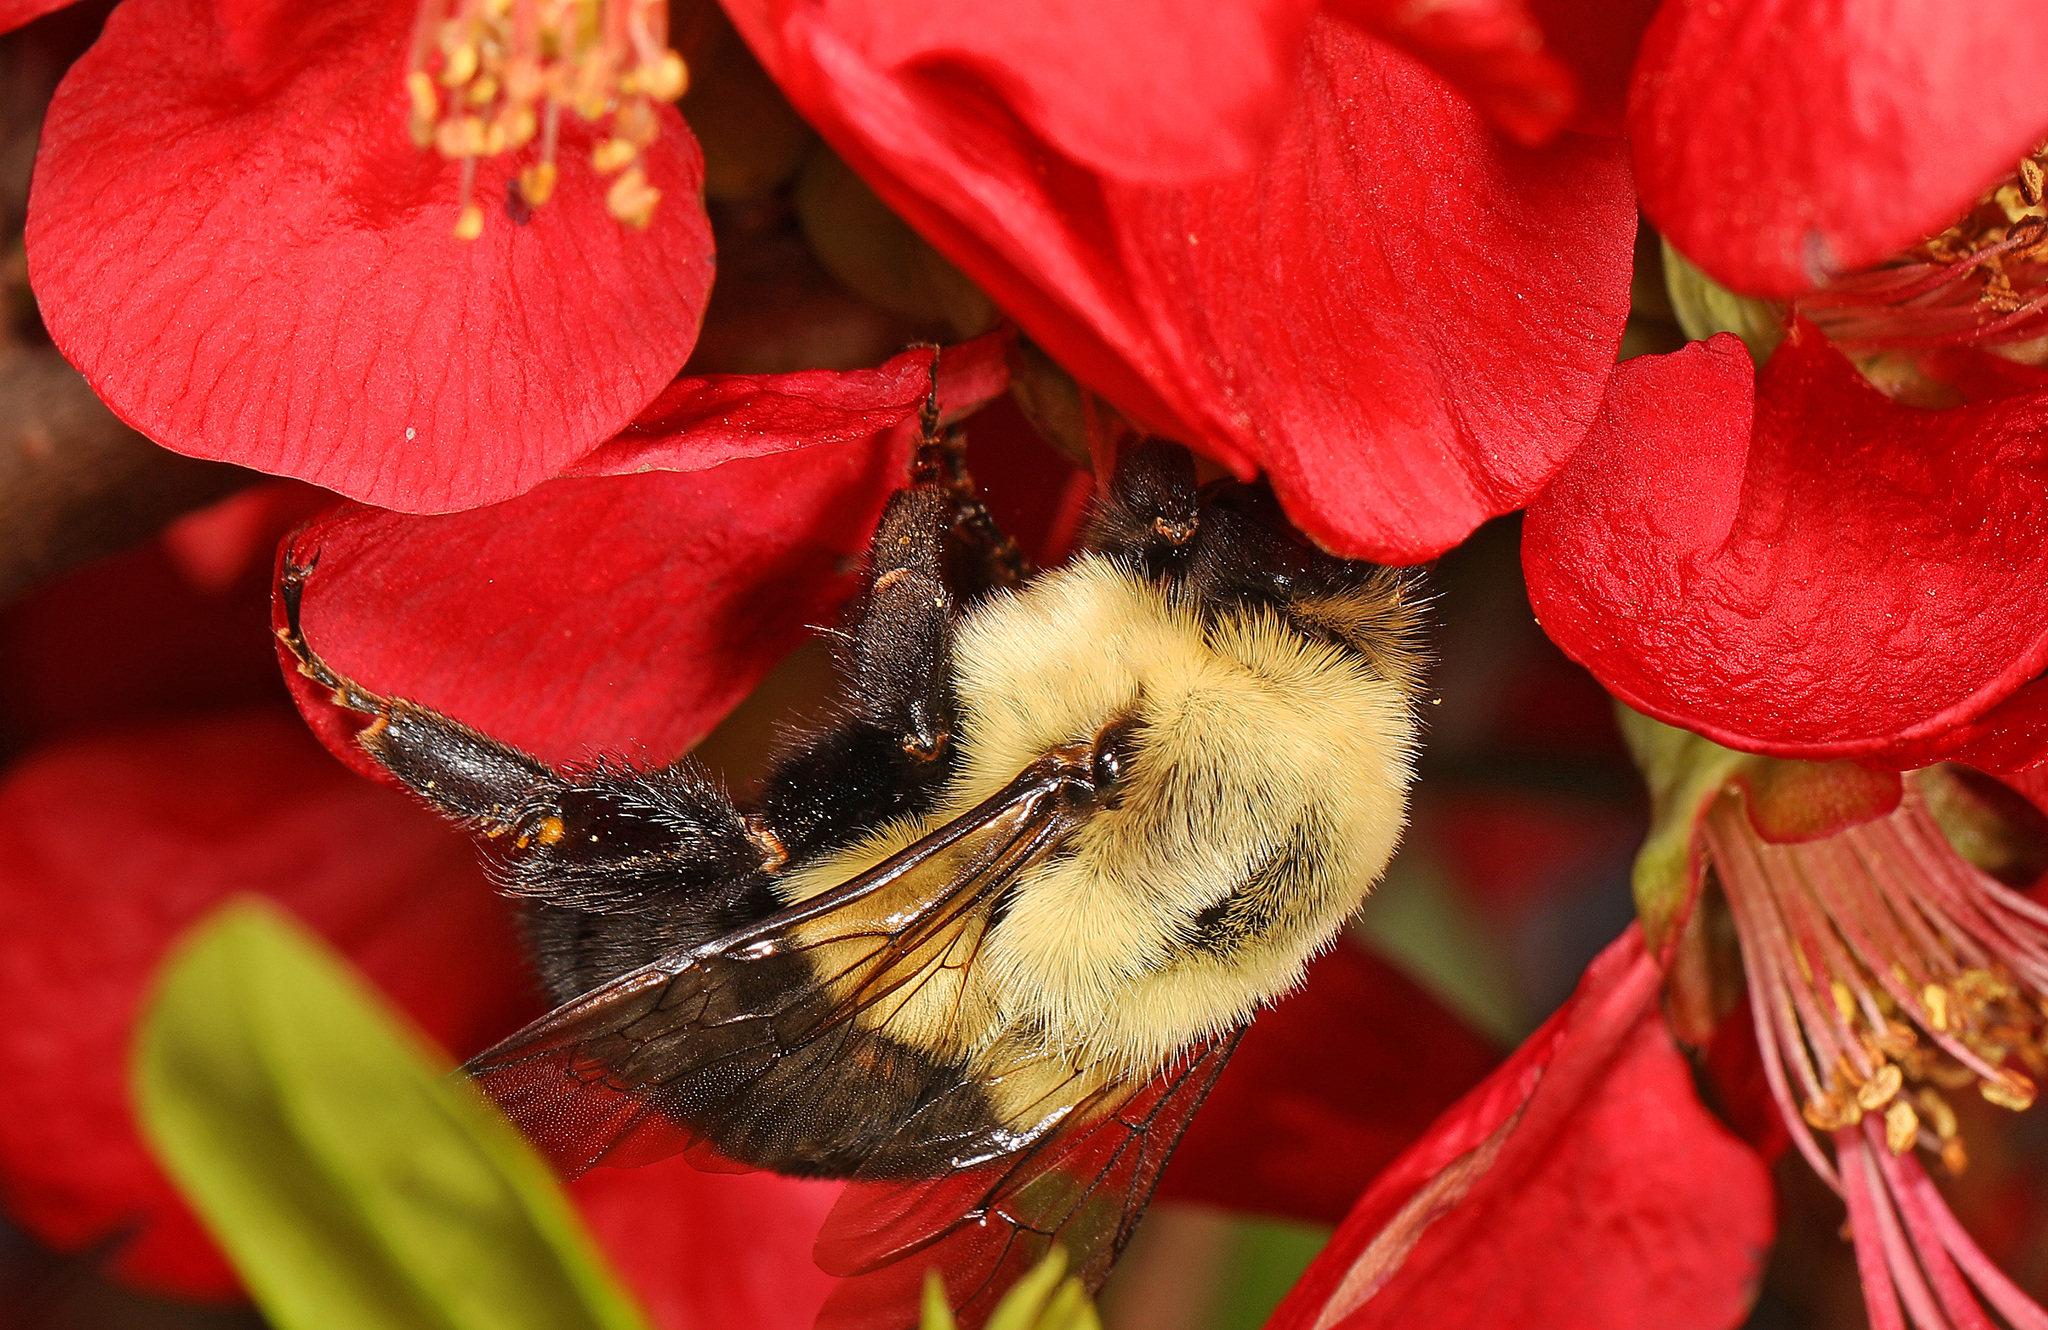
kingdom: Animalia
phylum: Arthropoda
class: Insecta
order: Hymenoptera
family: Apidae
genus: Bombus
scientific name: Bombus impatiens
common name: Common eastern bumble bee
